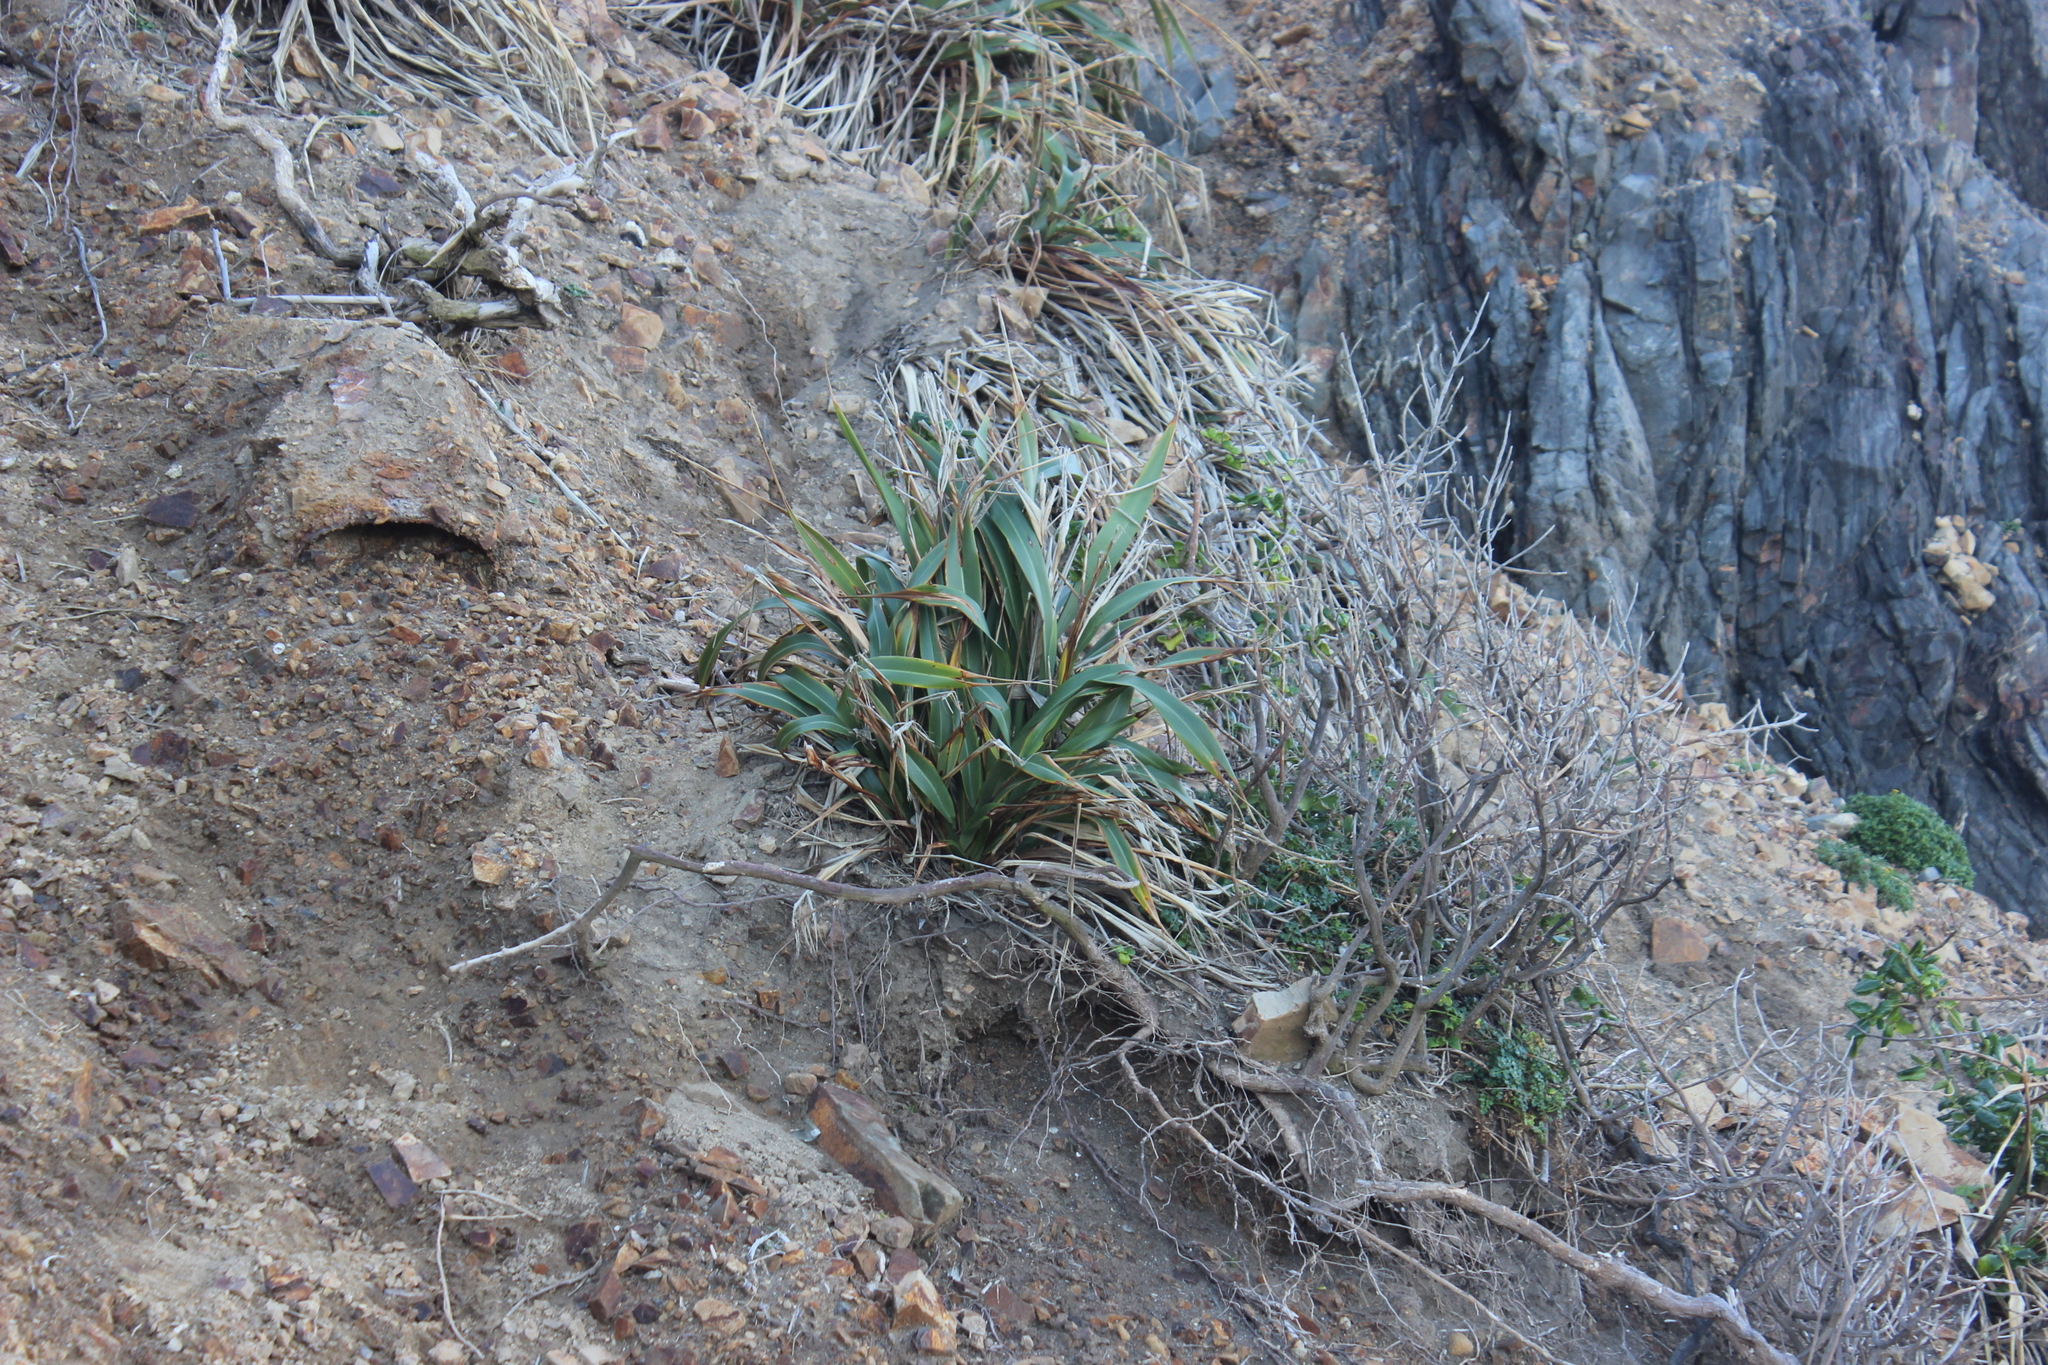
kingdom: Plantae
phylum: Tracheophyta
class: Liliopsida
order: Asparagales
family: Asphodelaceae
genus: Phormium
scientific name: Phormium colensoi
